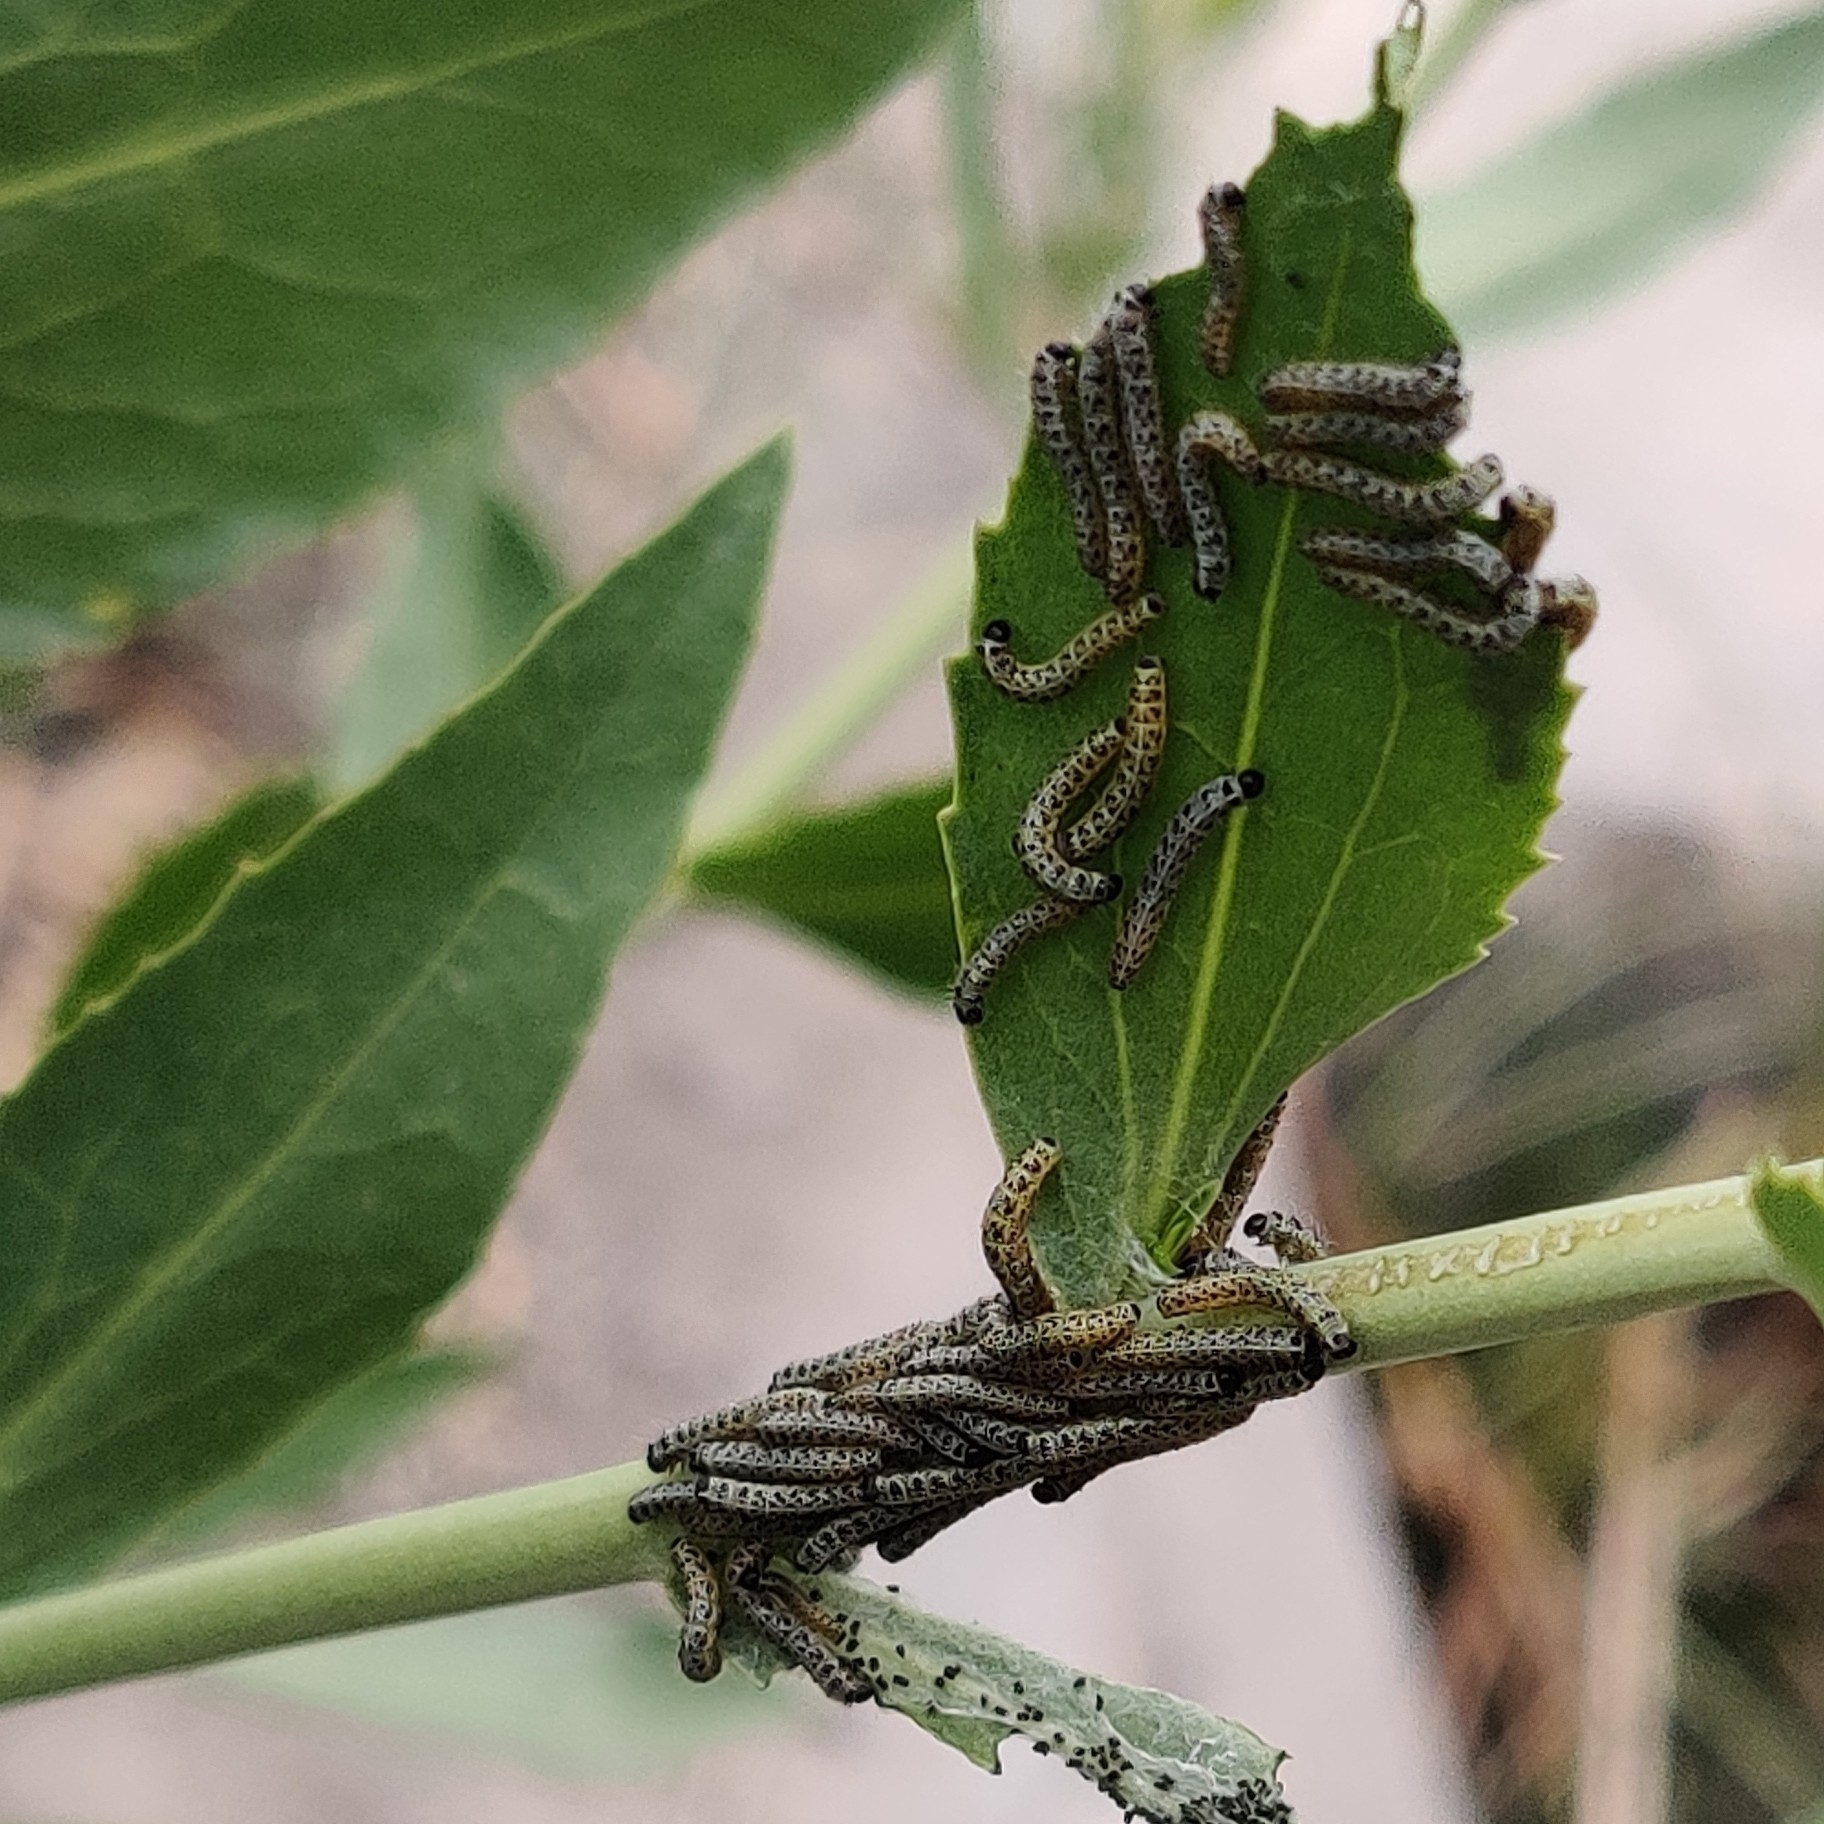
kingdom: Animalia
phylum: Arthropoda
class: Insecta
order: Lepidoptera
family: Pieridae
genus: Pieris
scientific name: Pieris brassicae
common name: Large white
